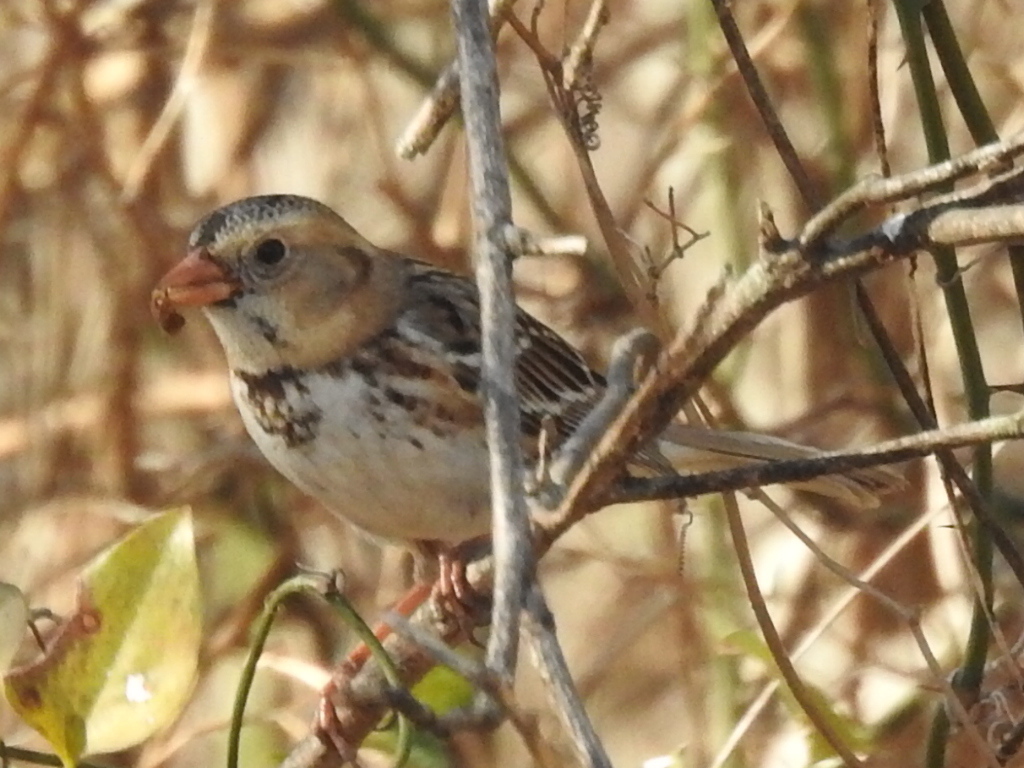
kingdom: Animalia
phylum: Chordata
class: Aves
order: Passeriformes
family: Passerellidae
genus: Zonotrichia
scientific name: Zonotrichia querula
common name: Harris's sparrow
